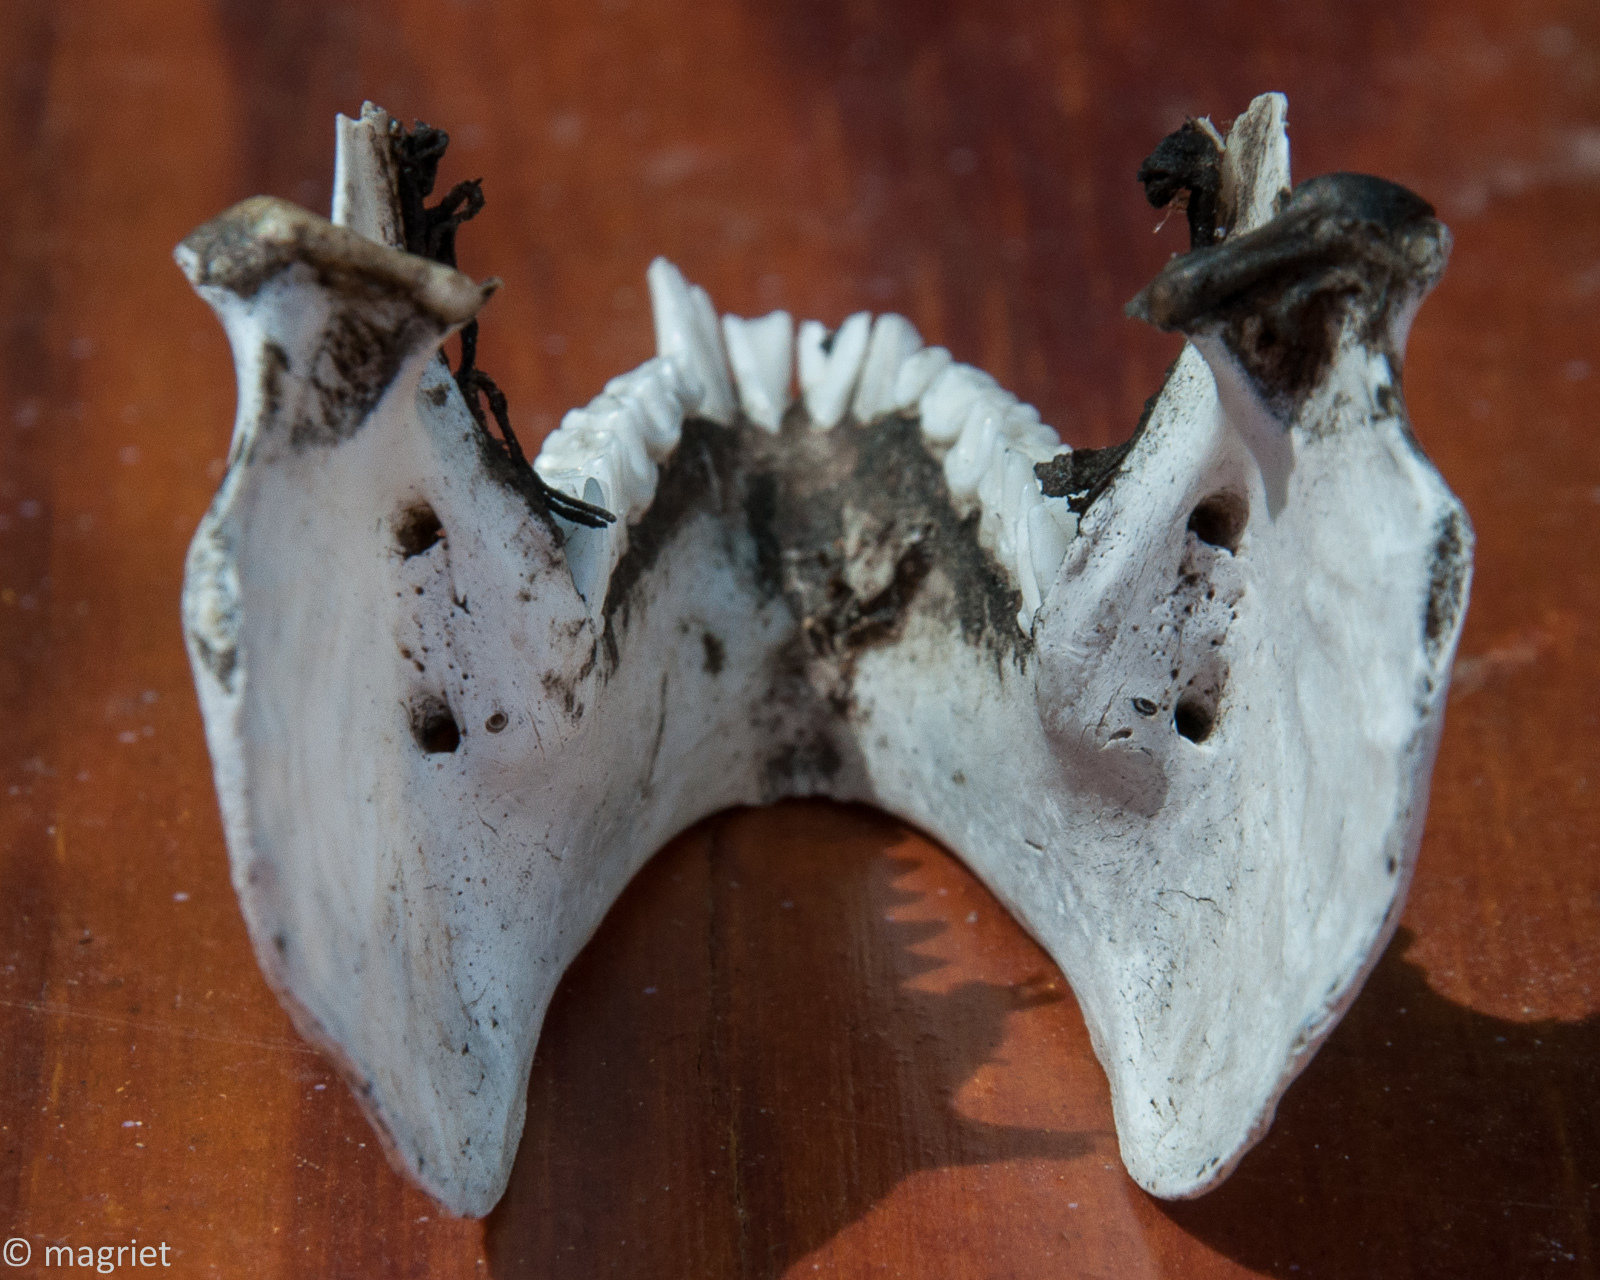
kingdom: Animalia
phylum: Chordata
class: Mammalia
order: Hyracoidea
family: Procaviidae
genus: Procavia
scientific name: Procavia capensis
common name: Rock hyrax
